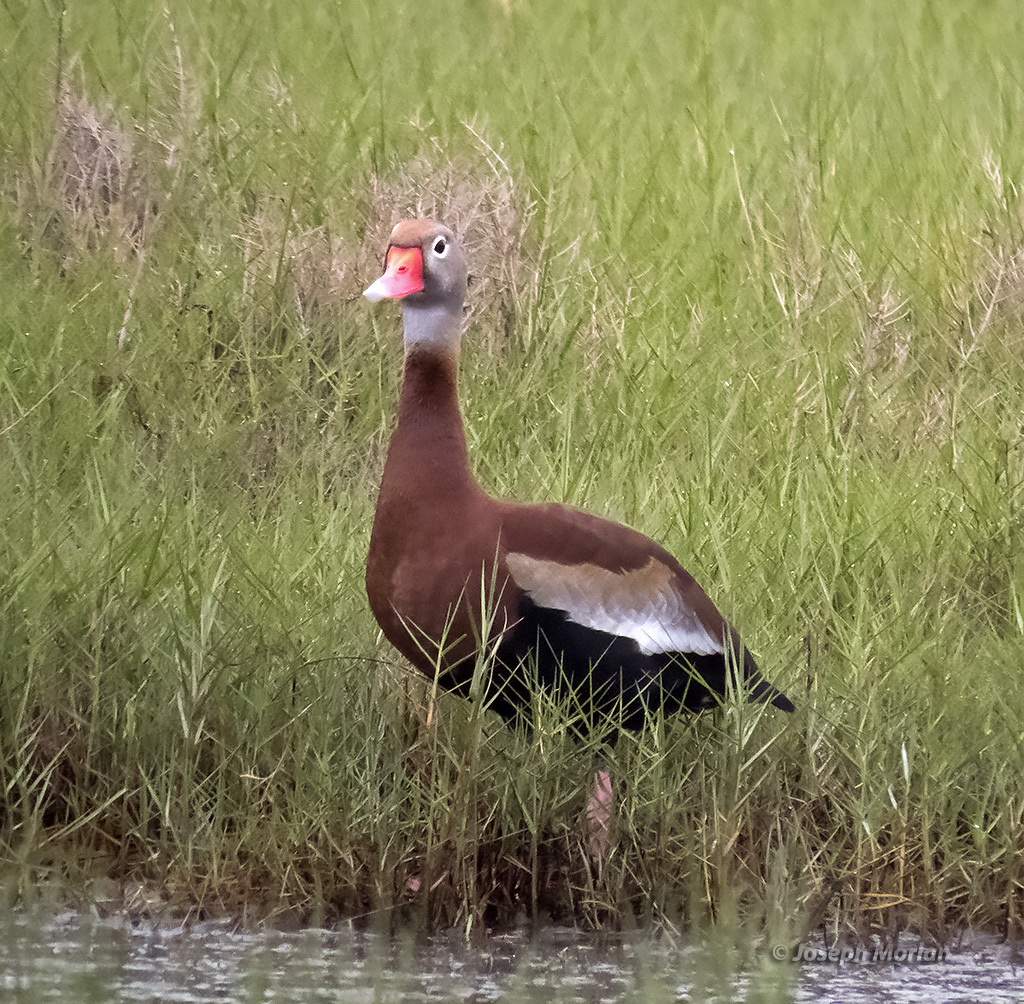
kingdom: Animalia
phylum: Chordata
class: Aves
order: Anseriformes
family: Anatidae
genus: Dendrocygna
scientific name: Dendrocygna autumnalis
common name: Black-bellied whistling duck
